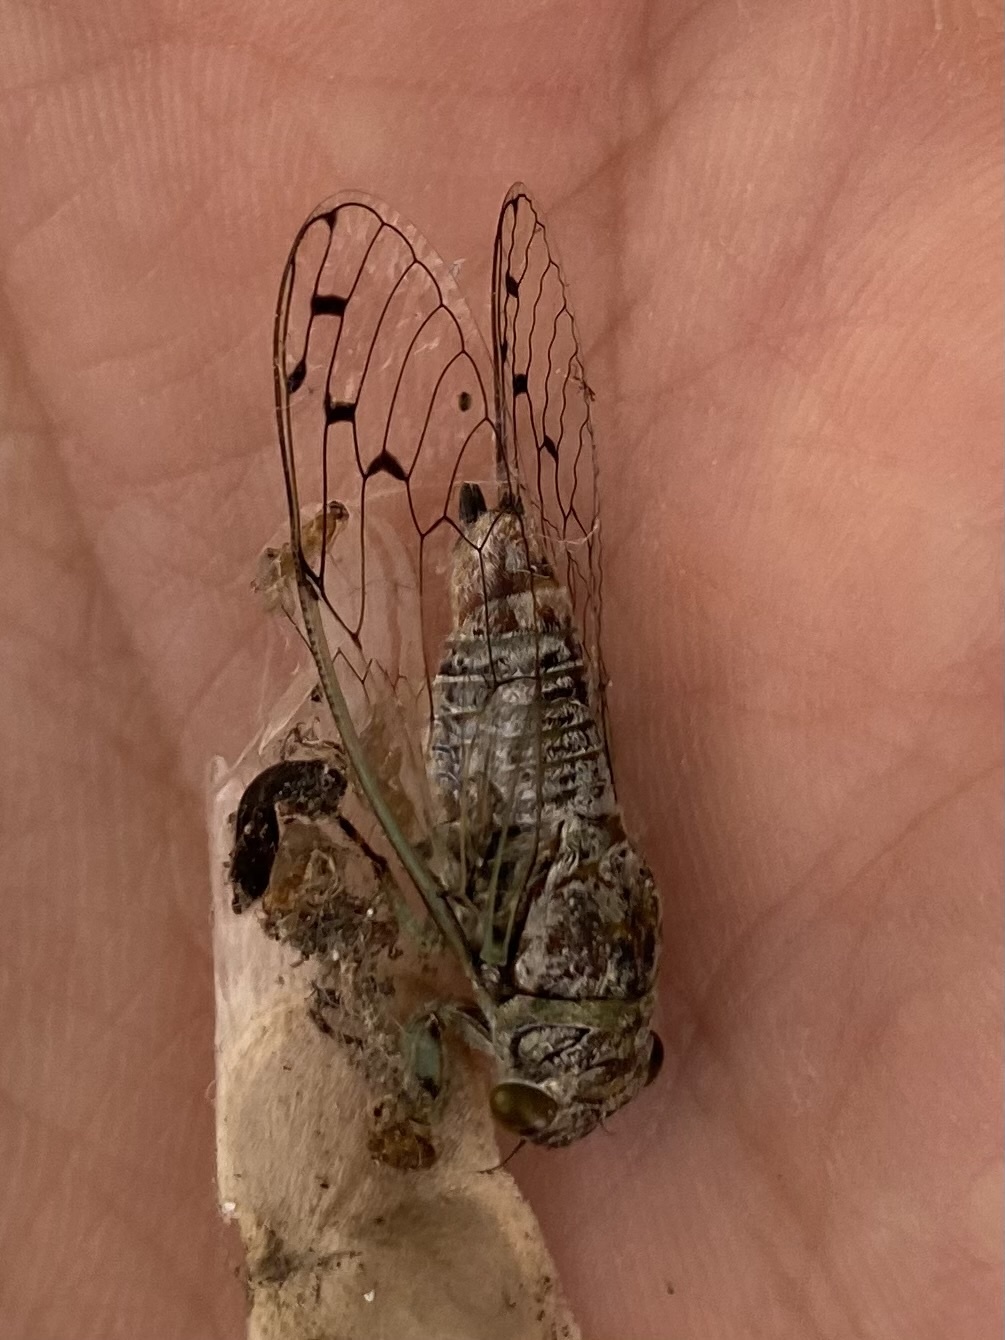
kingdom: Animalia
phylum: Arthropoda
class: Insecta
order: Hemiptera
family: Cicadidae
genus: Pacarina
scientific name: Pacarina schumanni
